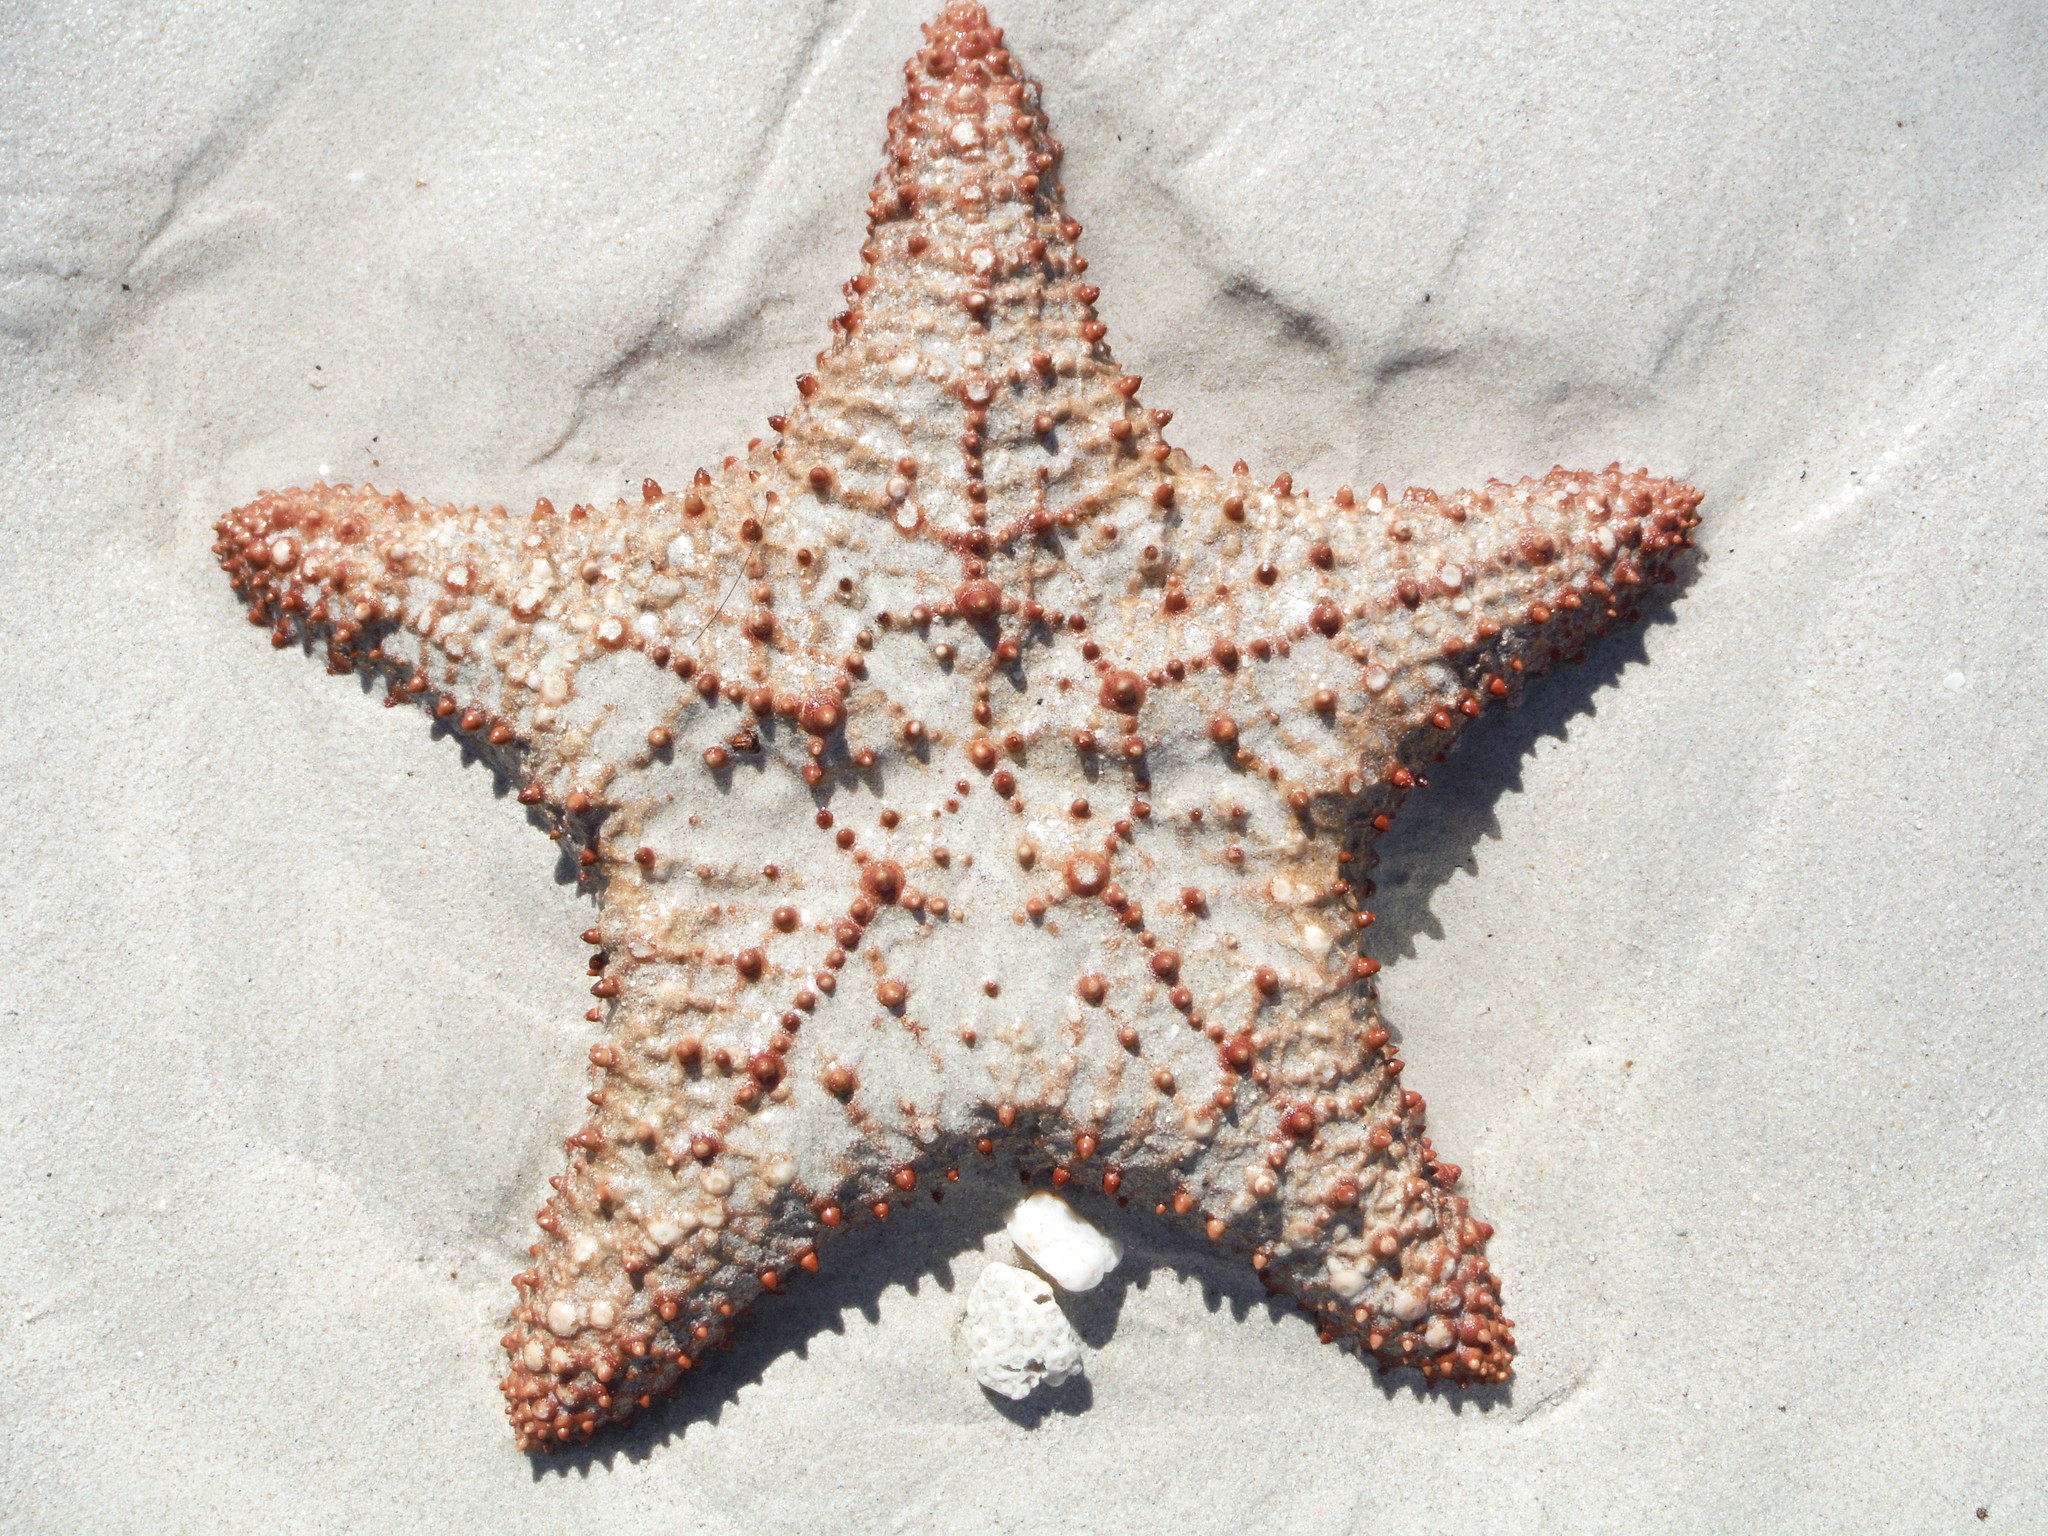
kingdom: Animalia
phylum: Echinodermata
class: Asteroidea
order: Valvatida
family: Oreasteridae
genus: Oreaster
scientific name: Oreaster reticulatus
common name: Cushion sea star
